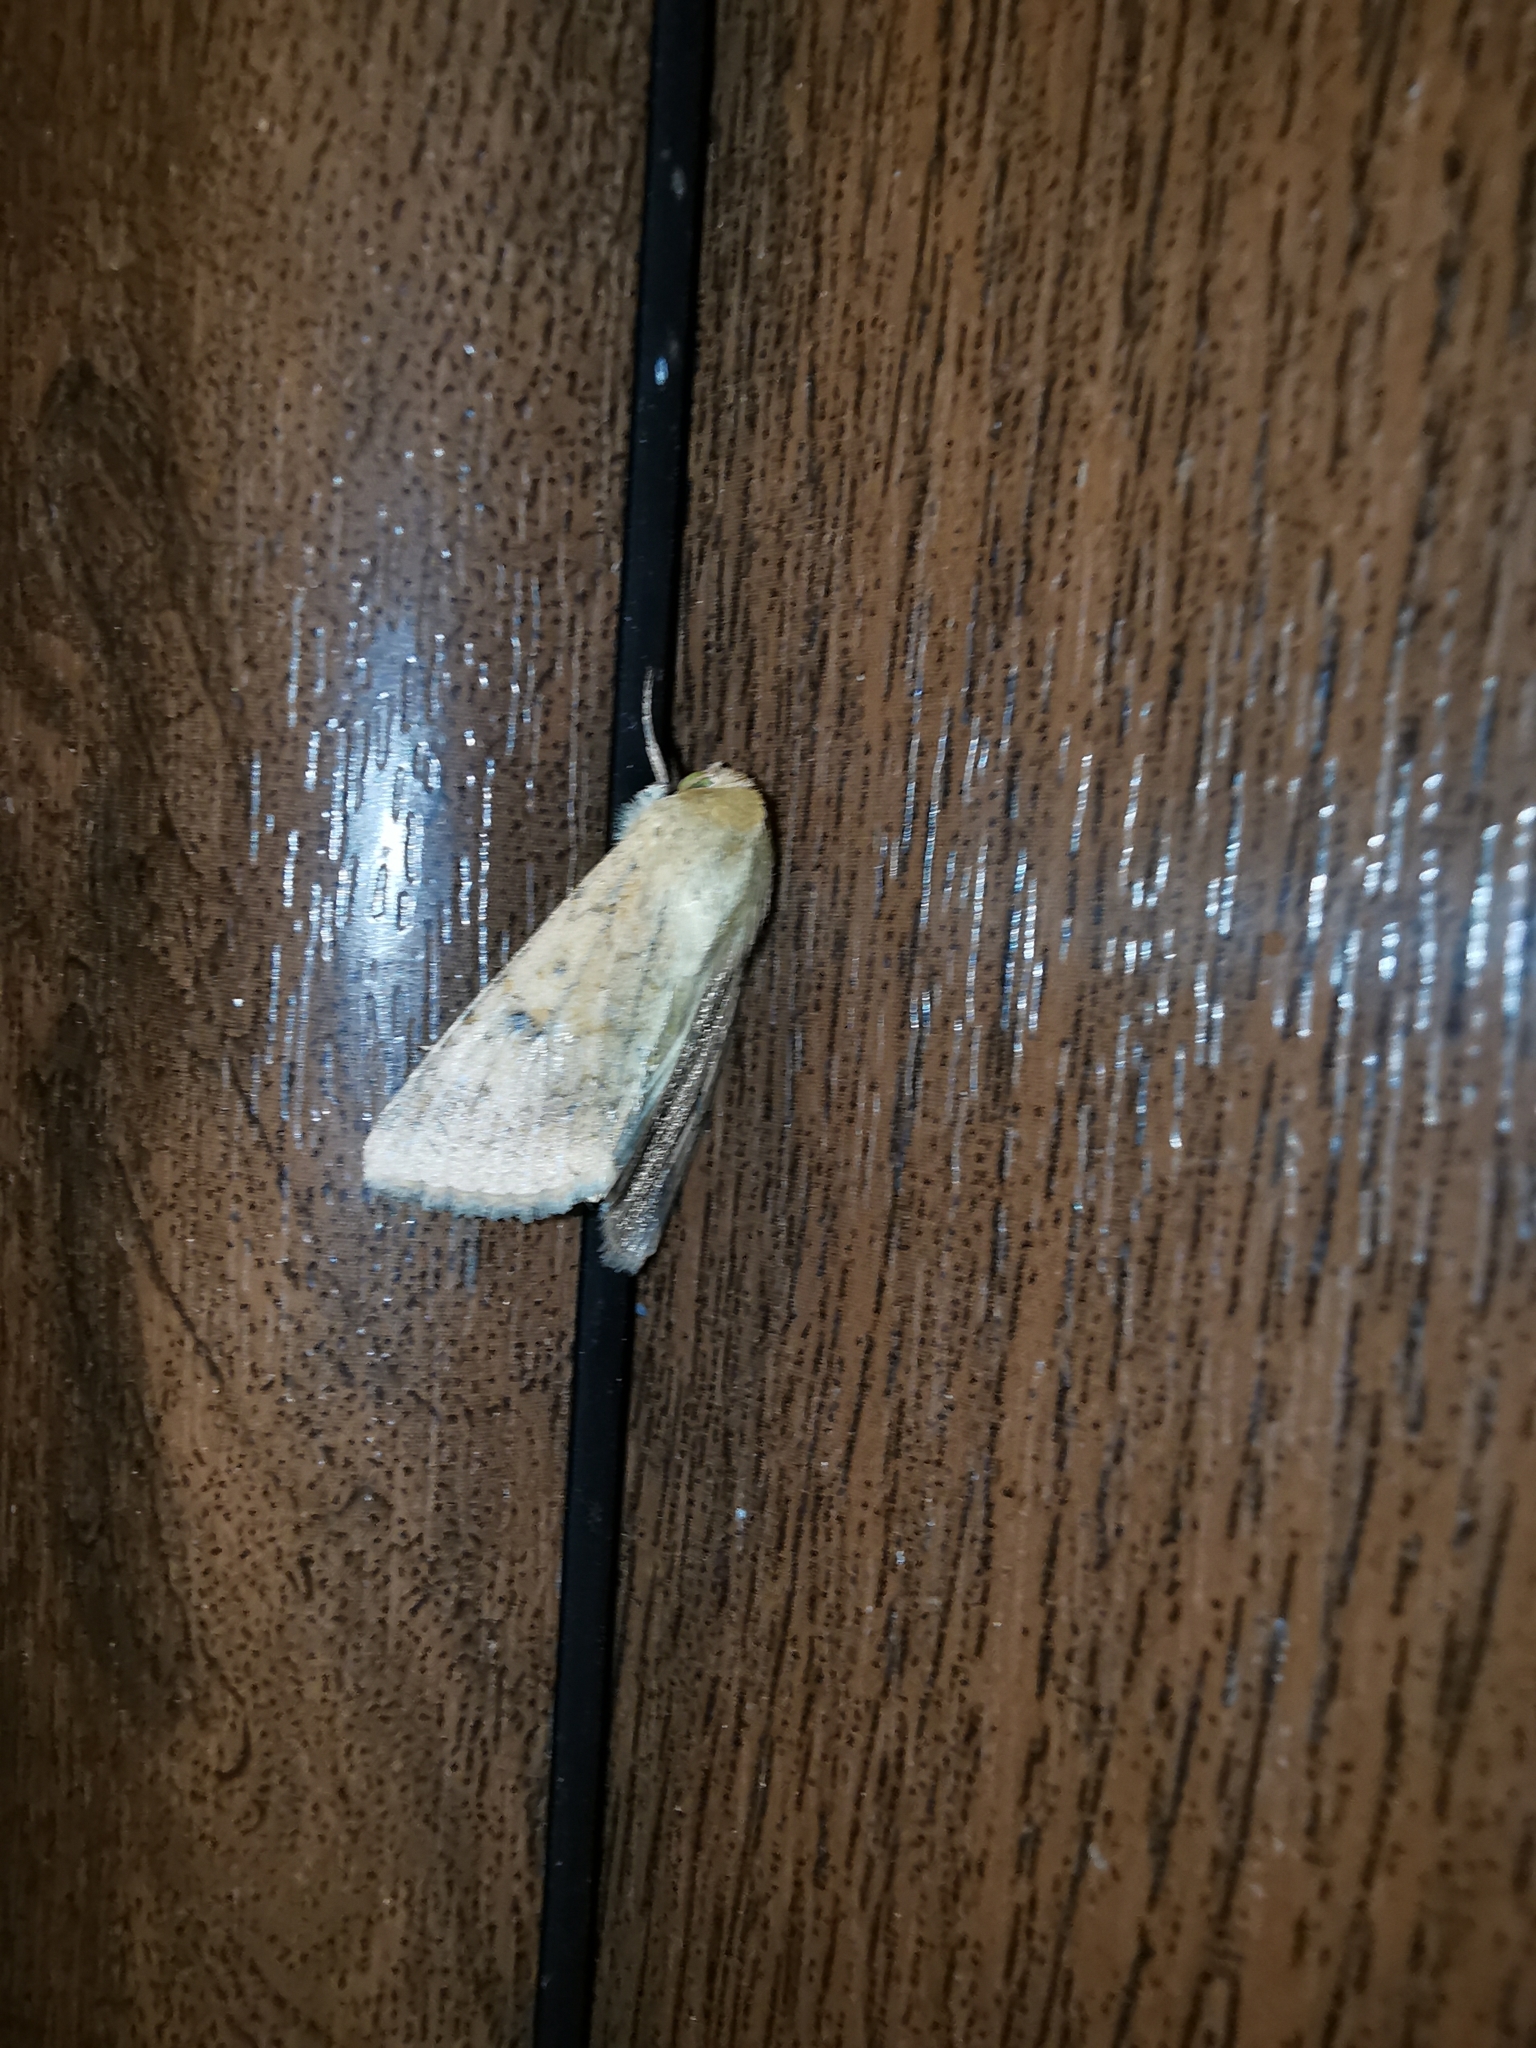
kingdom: Animalia
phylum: Arthropoda
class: Insecta
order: Lepidoptera
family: Noctuidae
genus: Helicoverpa
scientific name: Helicoverpa armigera
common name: Cotton bollworm
